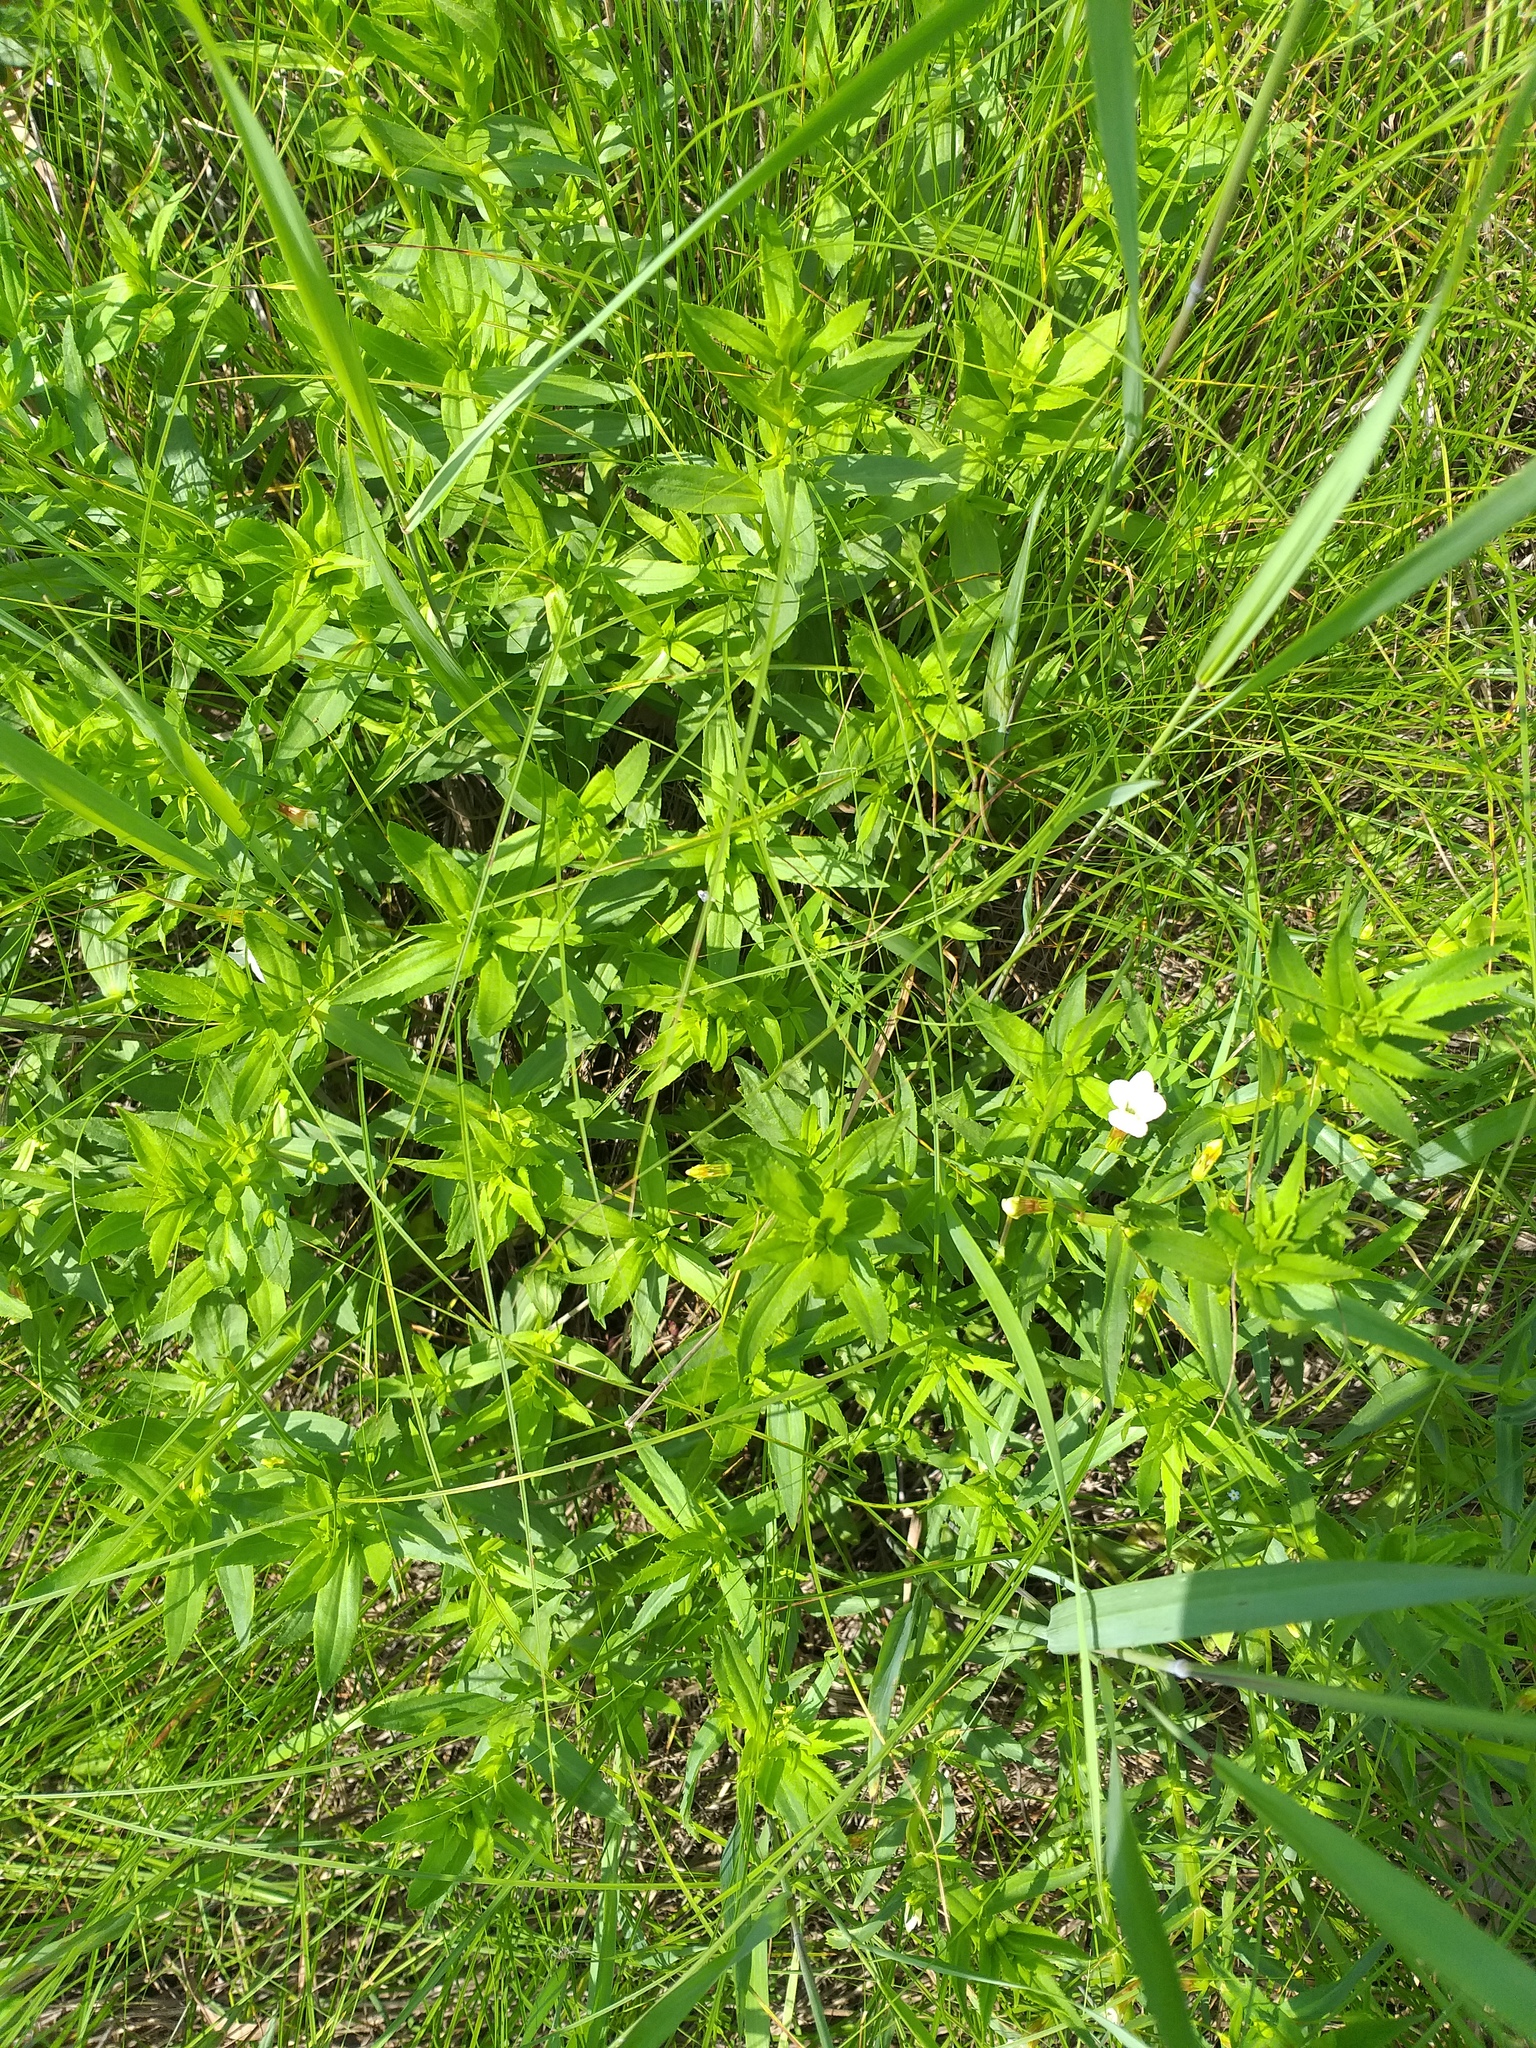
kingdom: Plantae
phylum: Tracheophyta
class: Magnoliopsida
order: Lamiales
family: Plantaginaceae
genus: Gratiola
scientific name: Gratiola officinalis
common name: Gratiola
